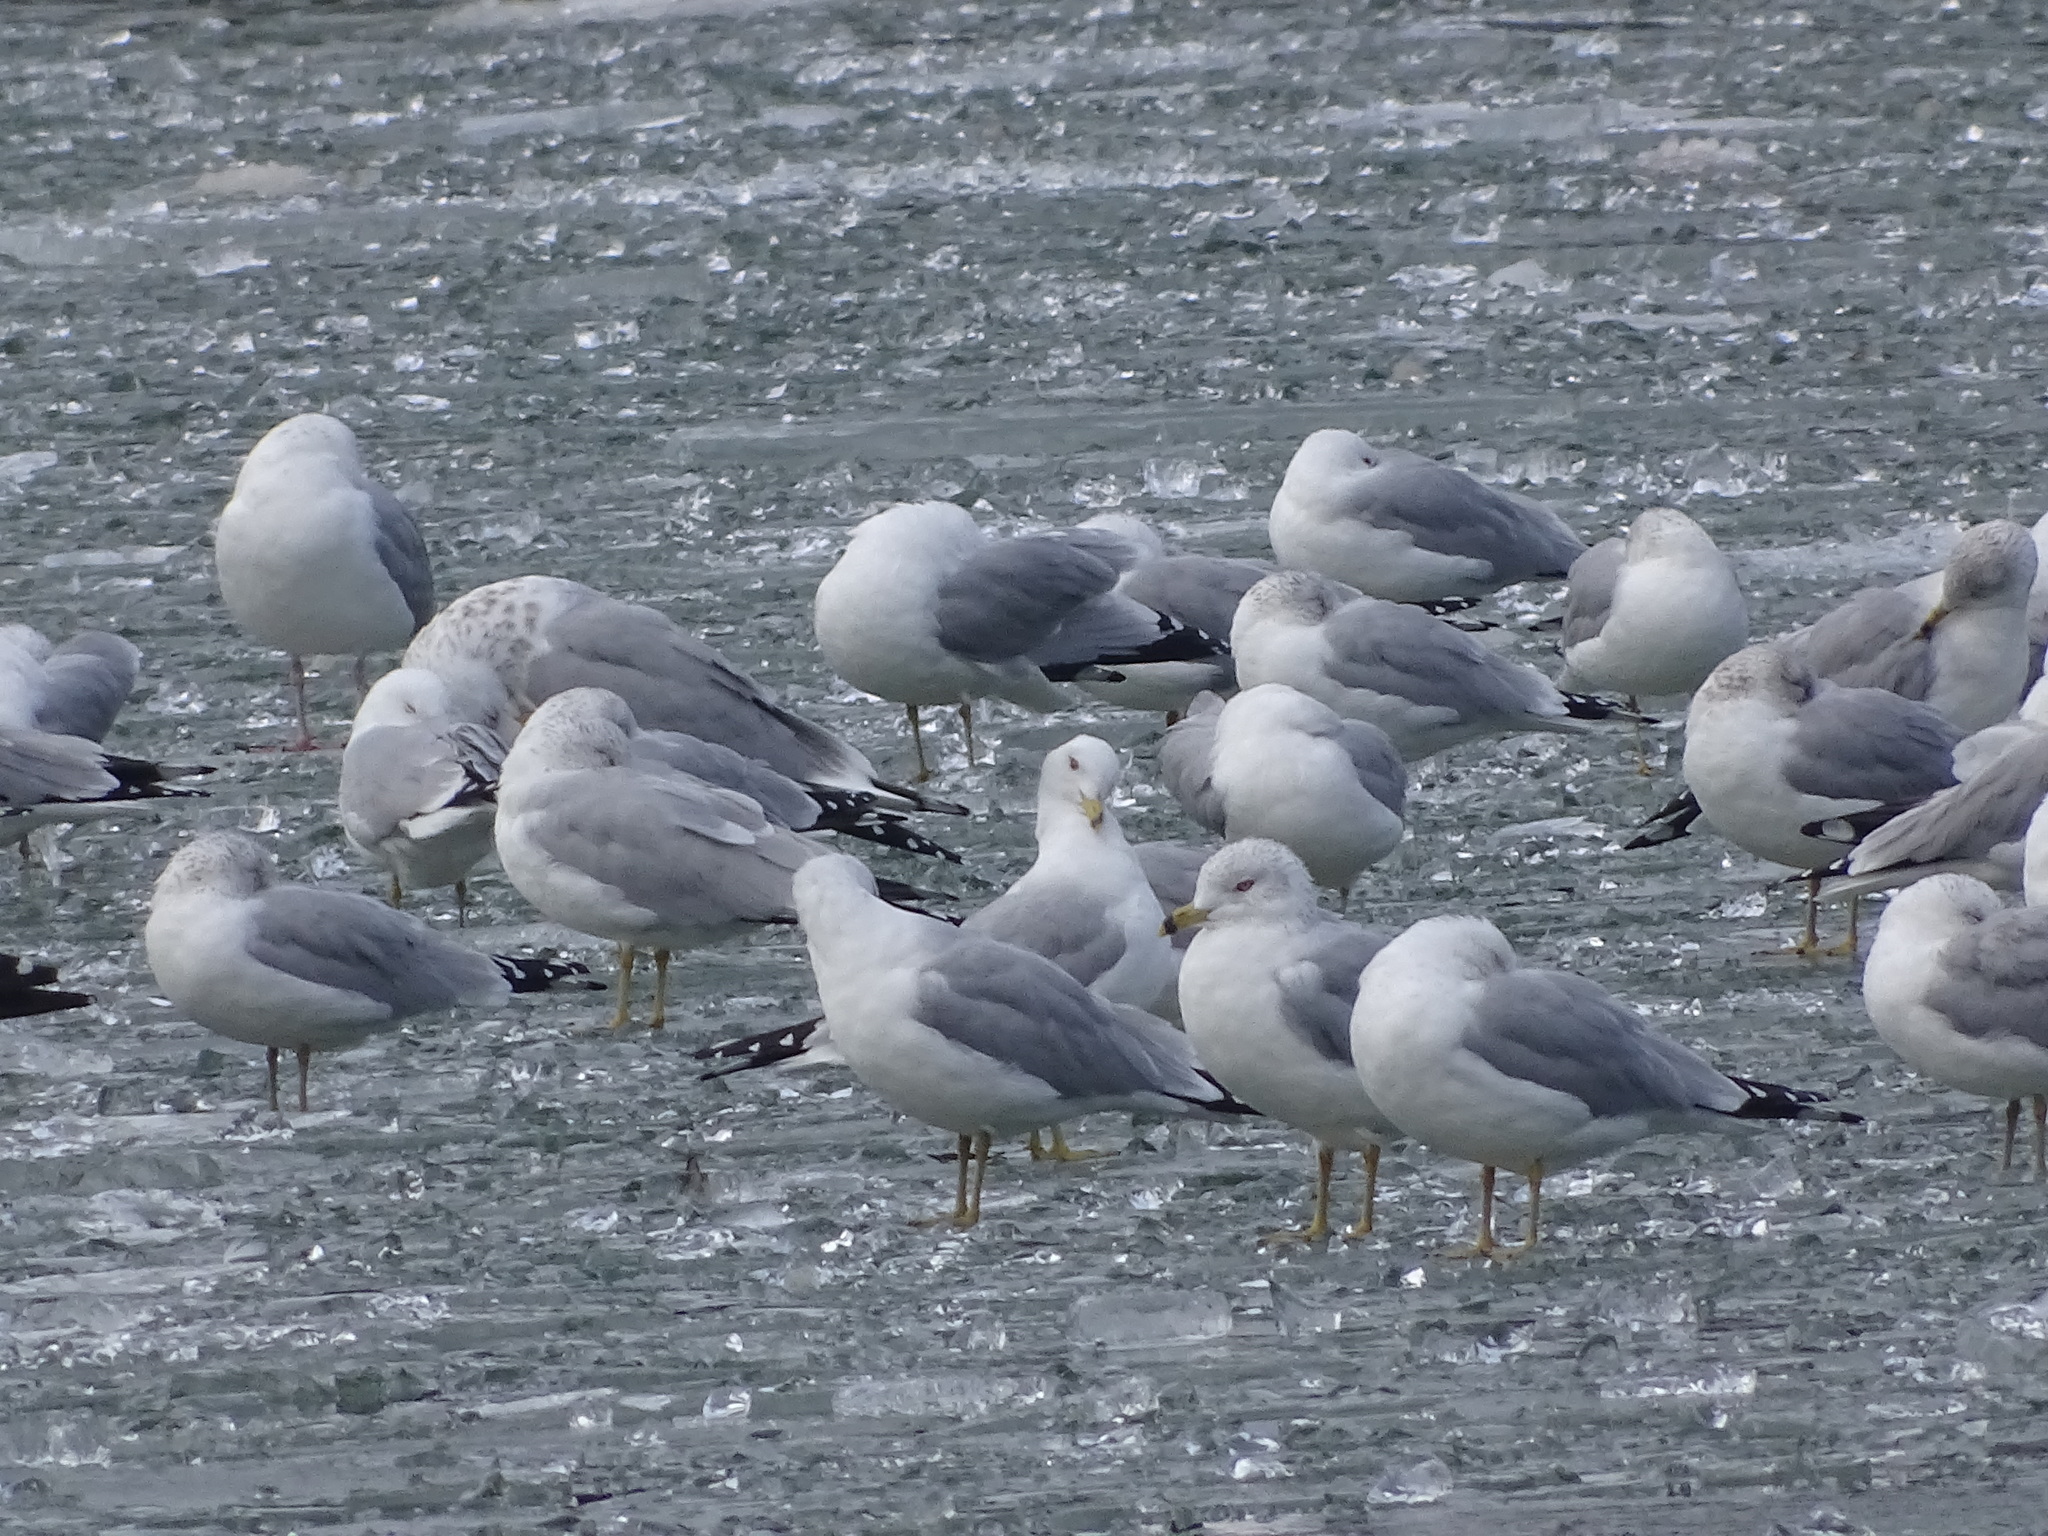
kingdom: Animalia
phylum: Chordata
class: Aves
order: Charadriiformes
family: Laridae
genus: Larus
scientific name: Larus delawarensis
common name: Ring-billed gull
